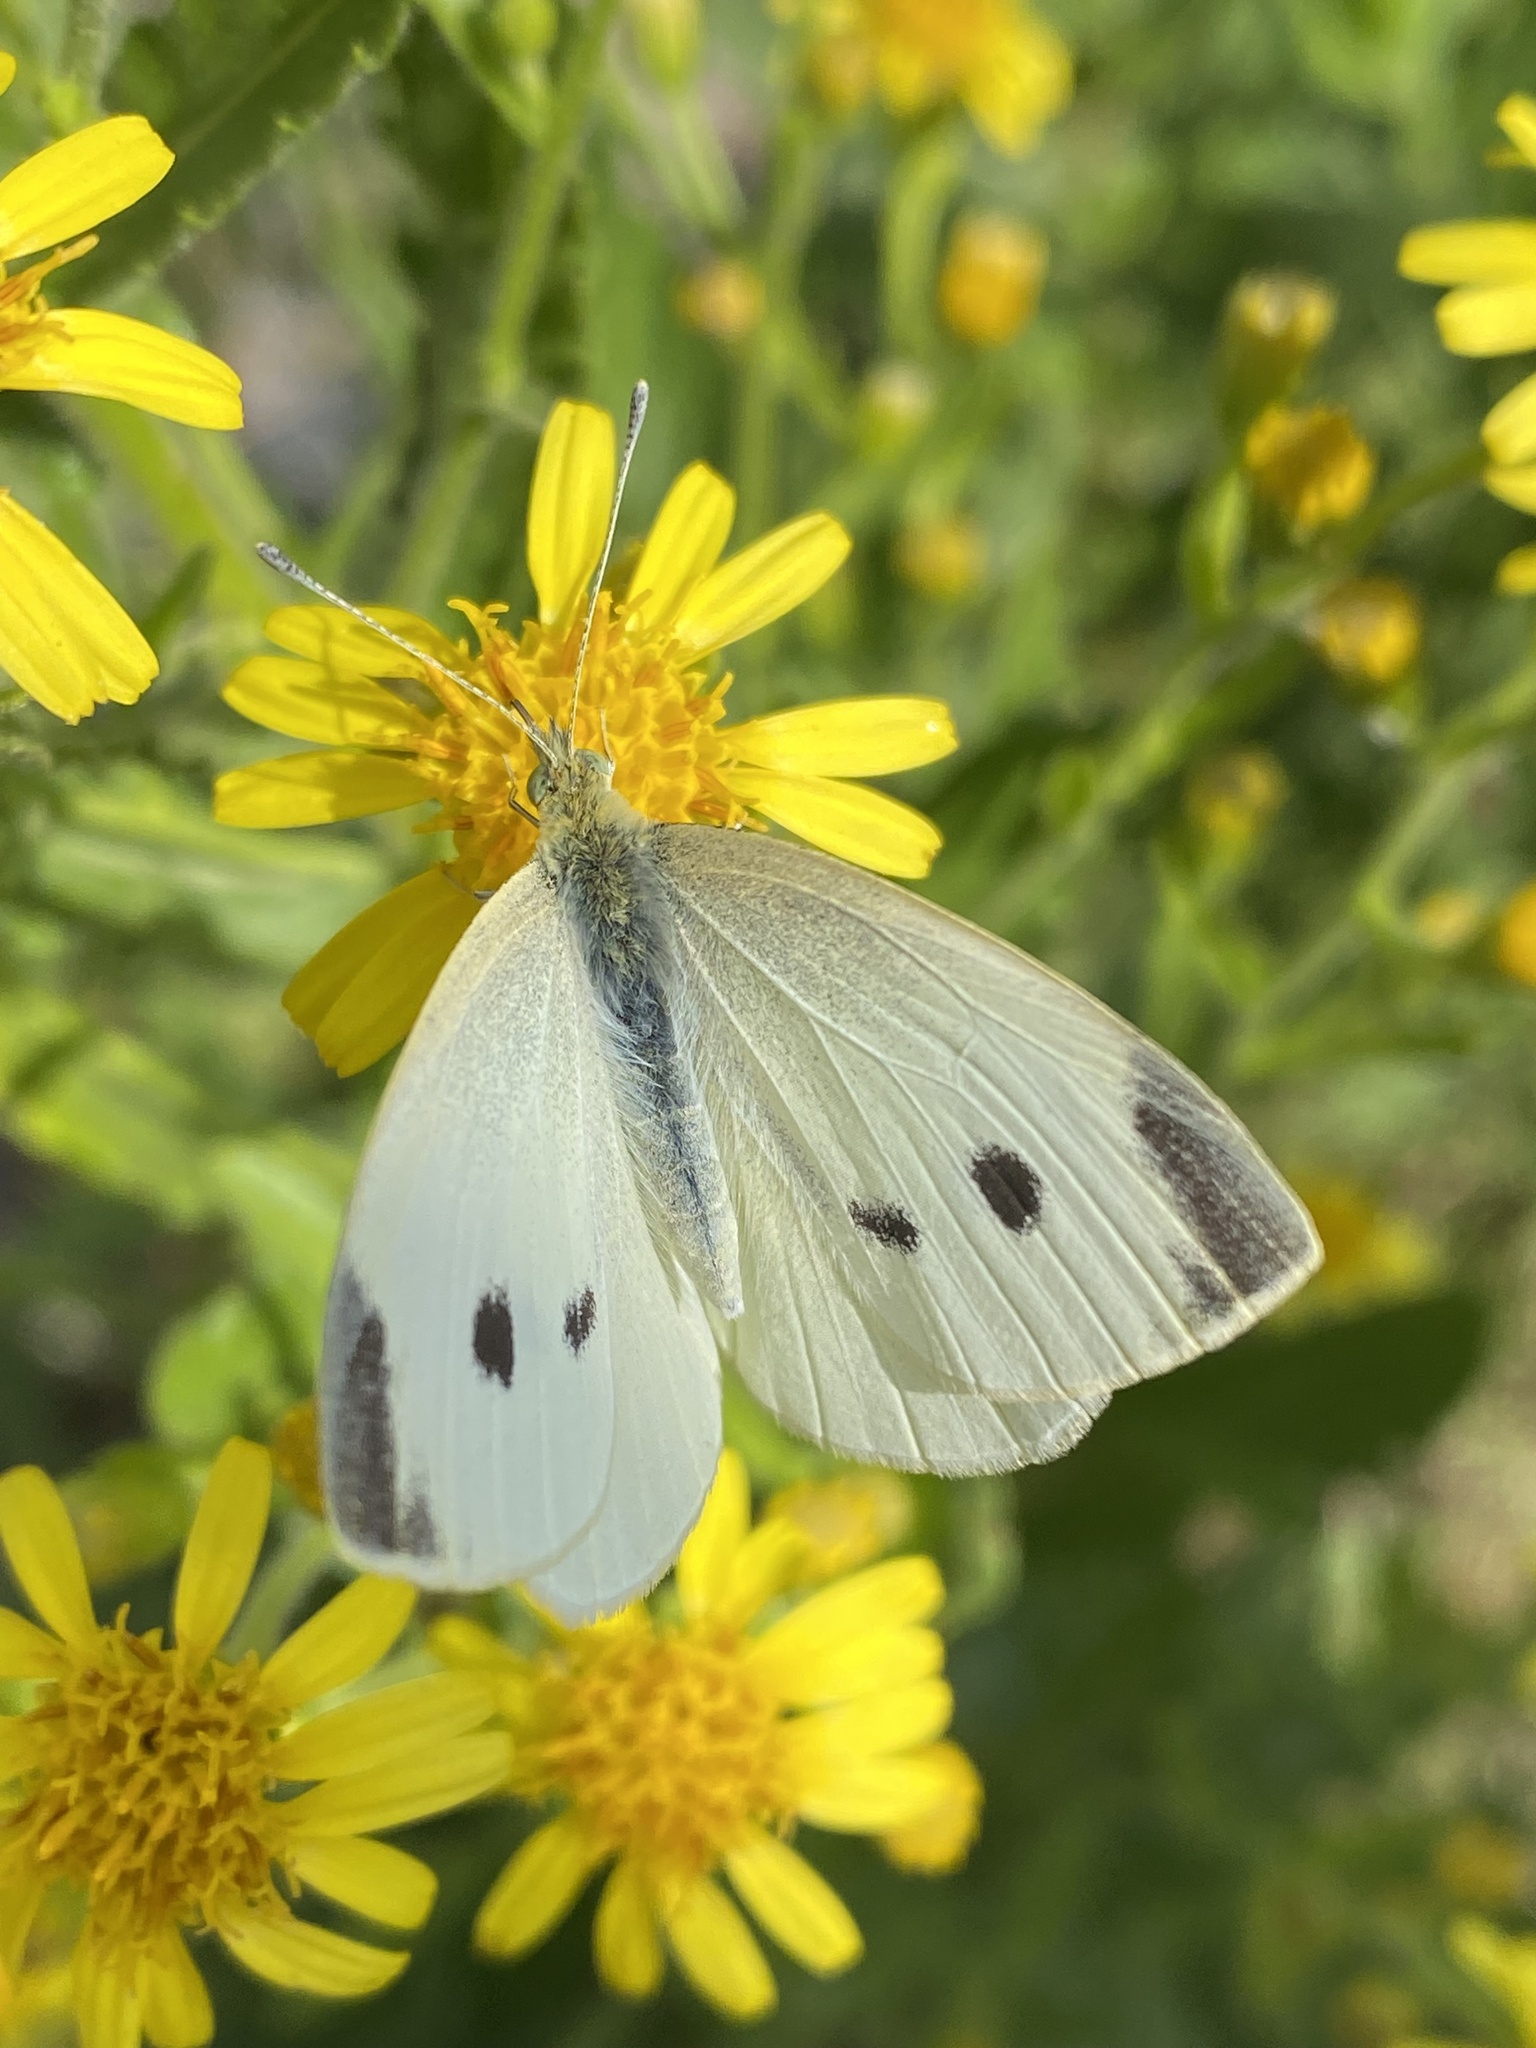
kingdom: Animalia
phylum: Arthropoda
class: Insecta
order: Lepidoptera
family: Pieridae
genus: Pieris
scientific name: Pieris rapae
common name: Small white
